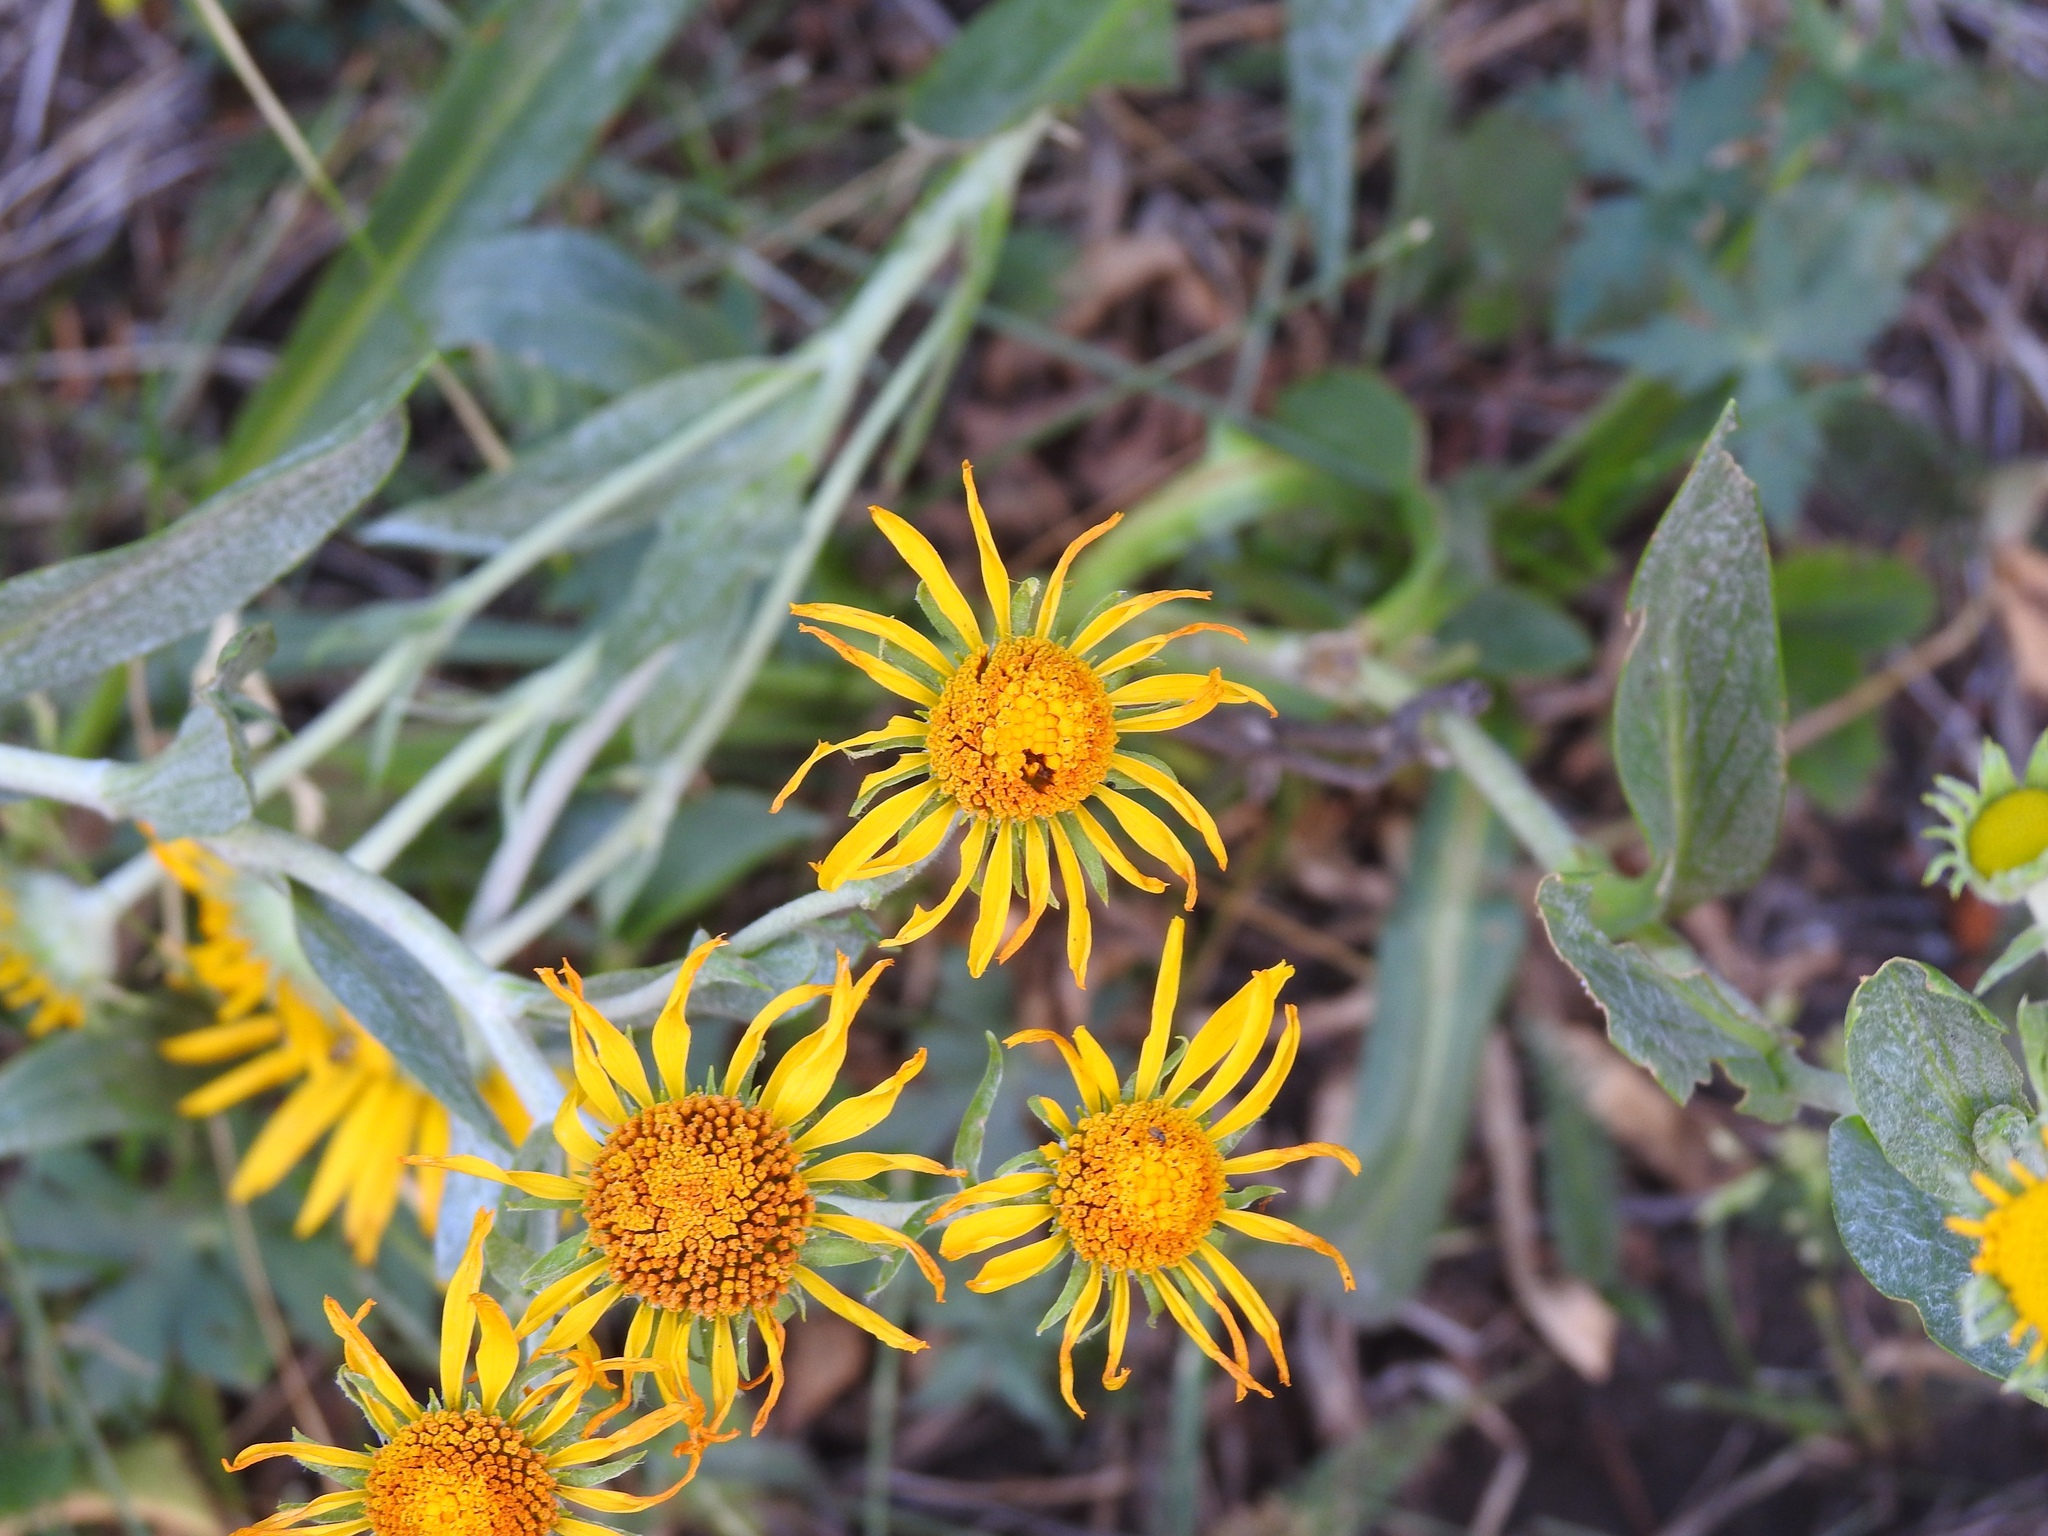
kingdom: Plantae
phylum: Tracheophyta
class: Magnoliopsida
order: Asterales
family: Asteraceae
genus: Hymenoxys
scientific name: Hymenoxys hoopesii
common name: Orange-sneezeweed
